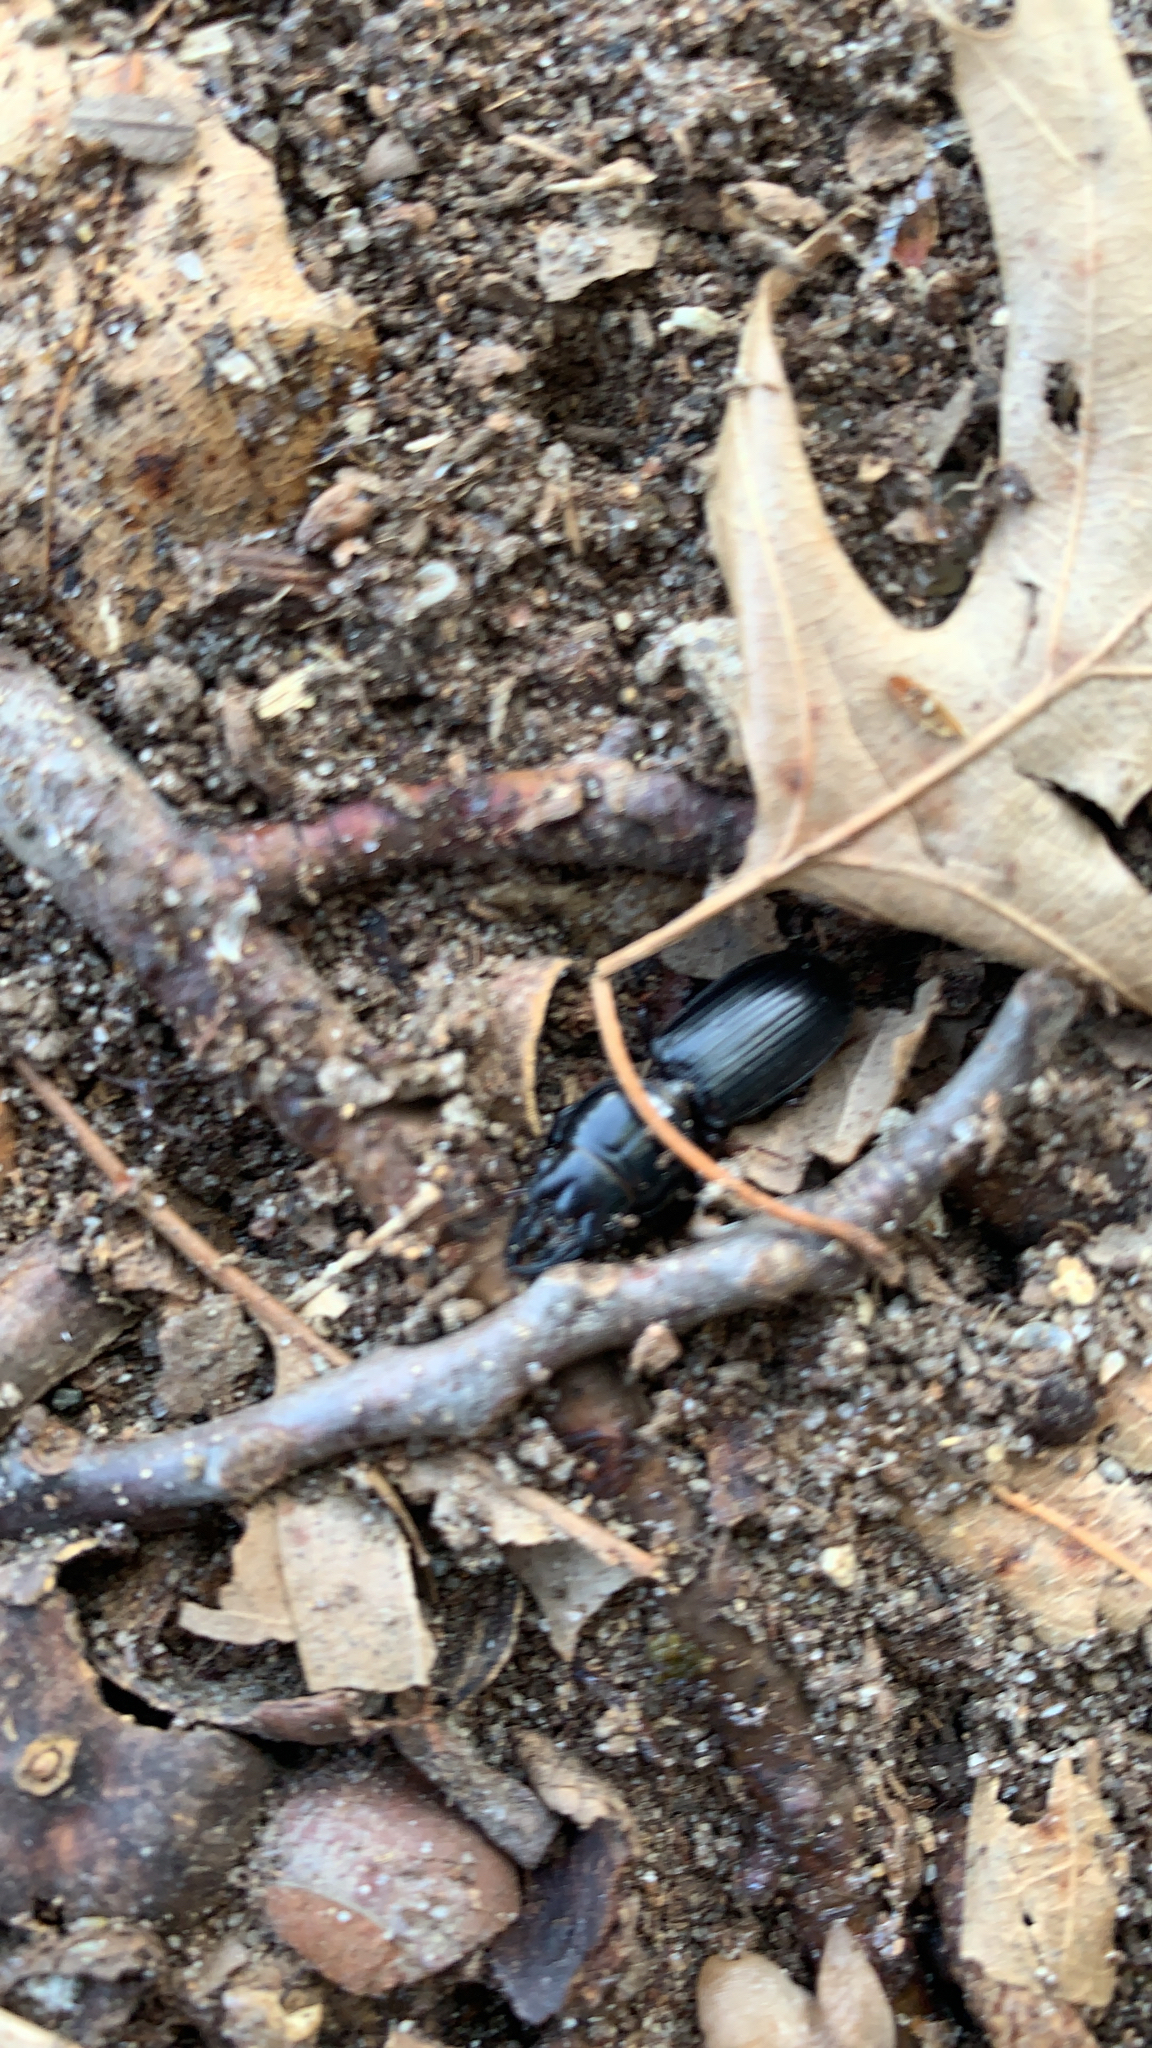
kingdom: Animalia
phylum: Arthropoda
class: Insecta
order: Coleoptera
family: Carabidae
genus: Scarites
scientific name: Scarites subterraneus
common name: Big-headed ground beetle
